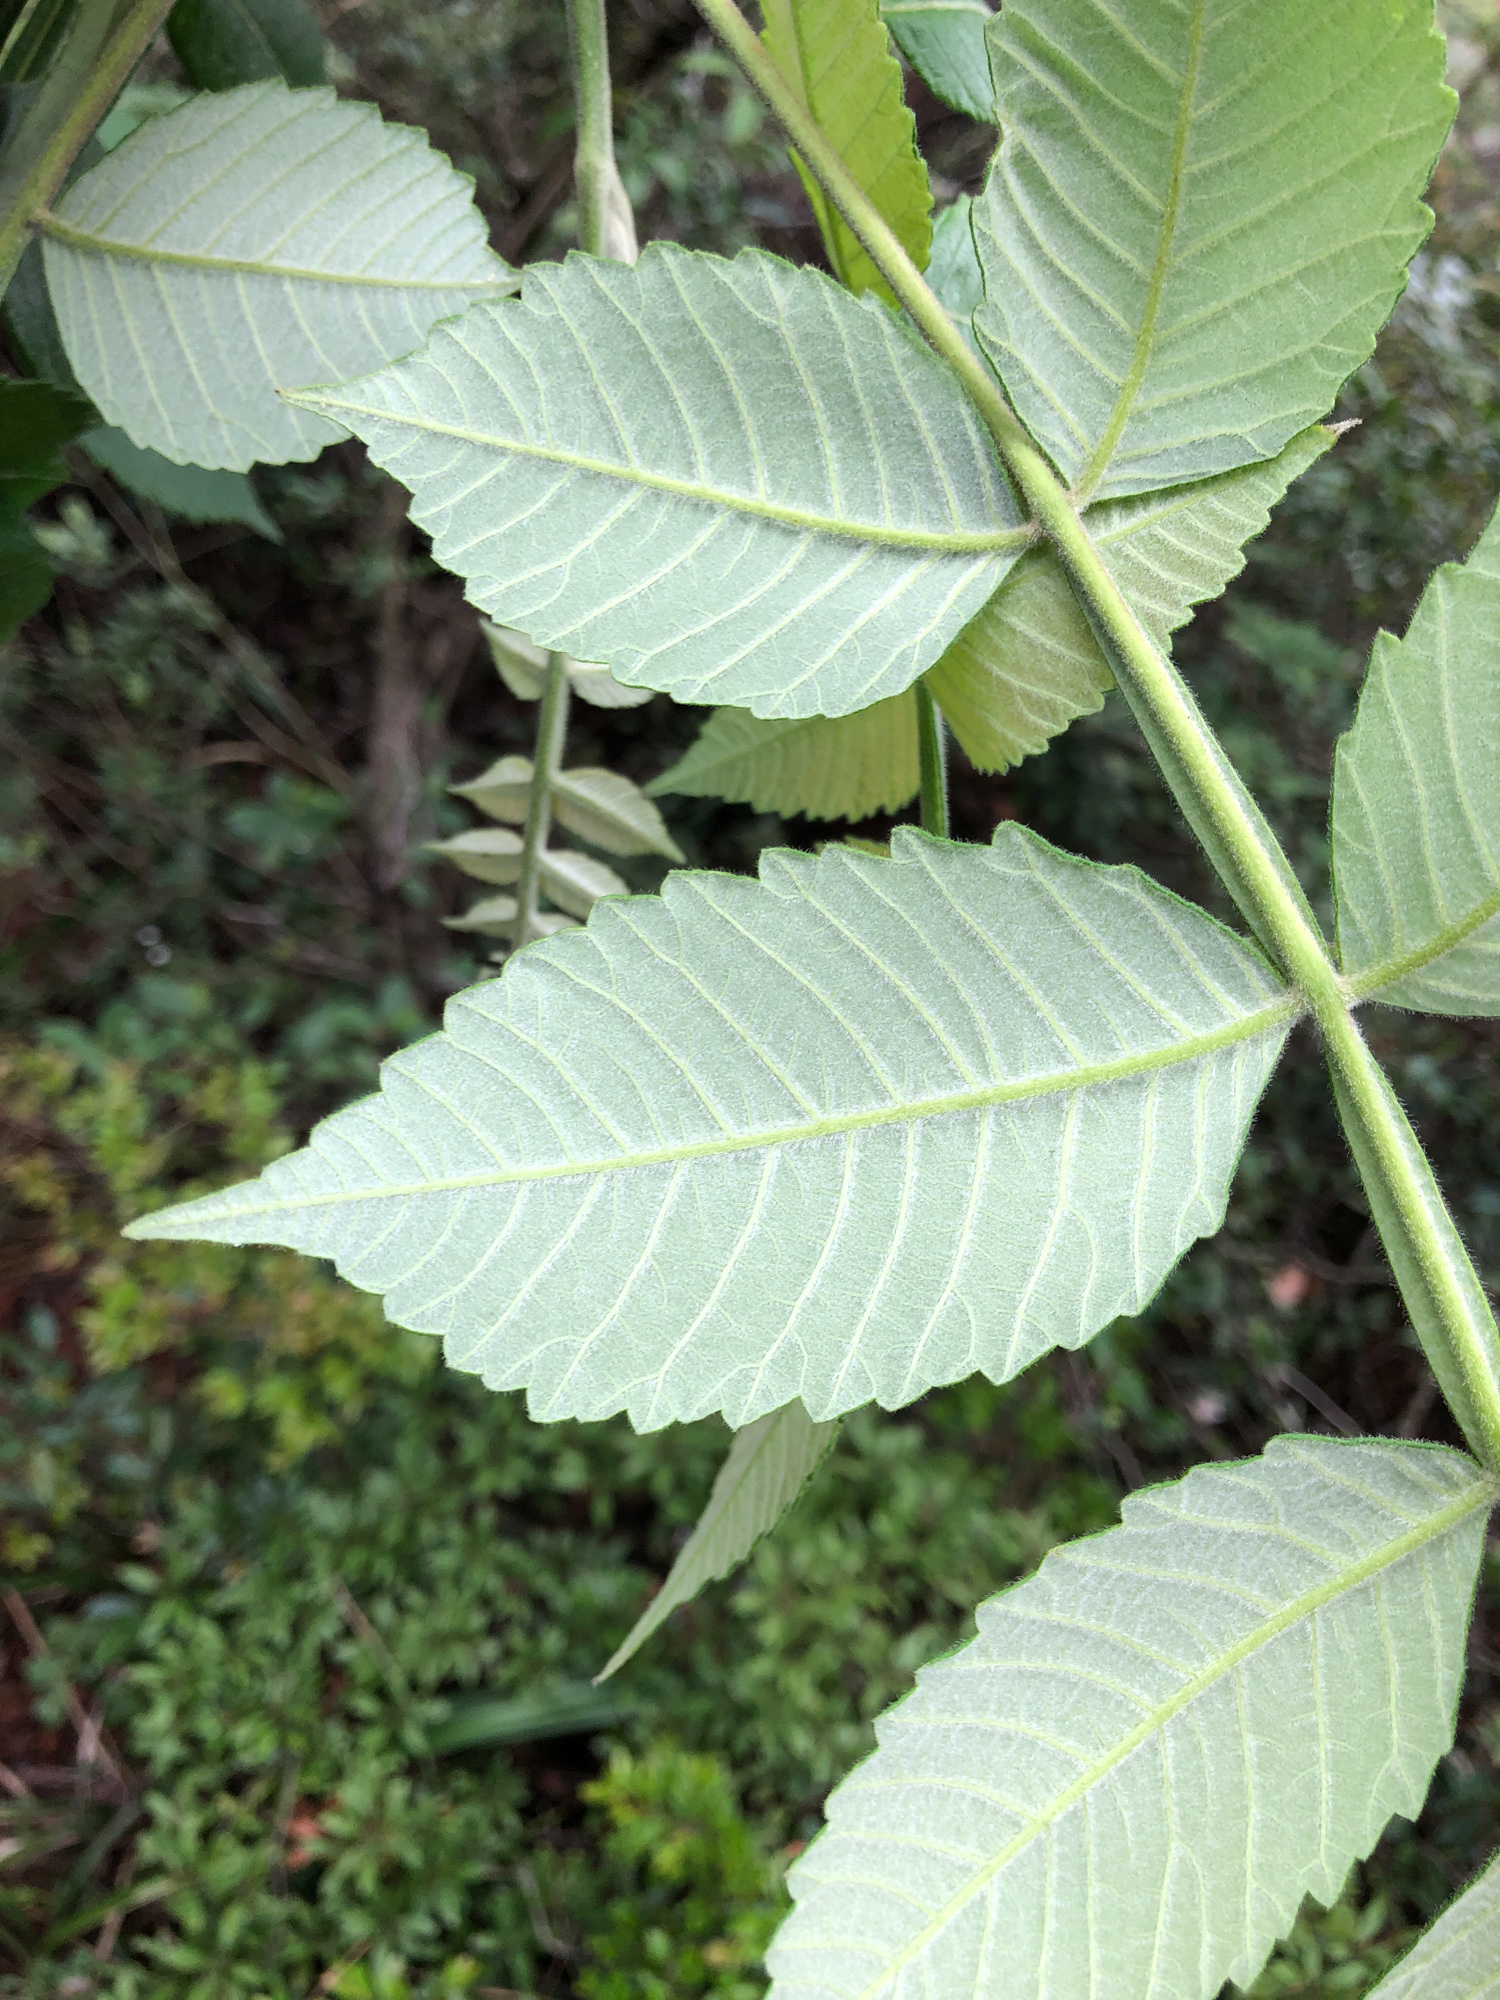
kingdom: Plantae
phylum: Tracheophyta
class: Magnoliopsida
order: Sapindales
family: Anacardiaceae
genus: Rhus
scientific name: Rhus chinensis
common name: Chinese gall
